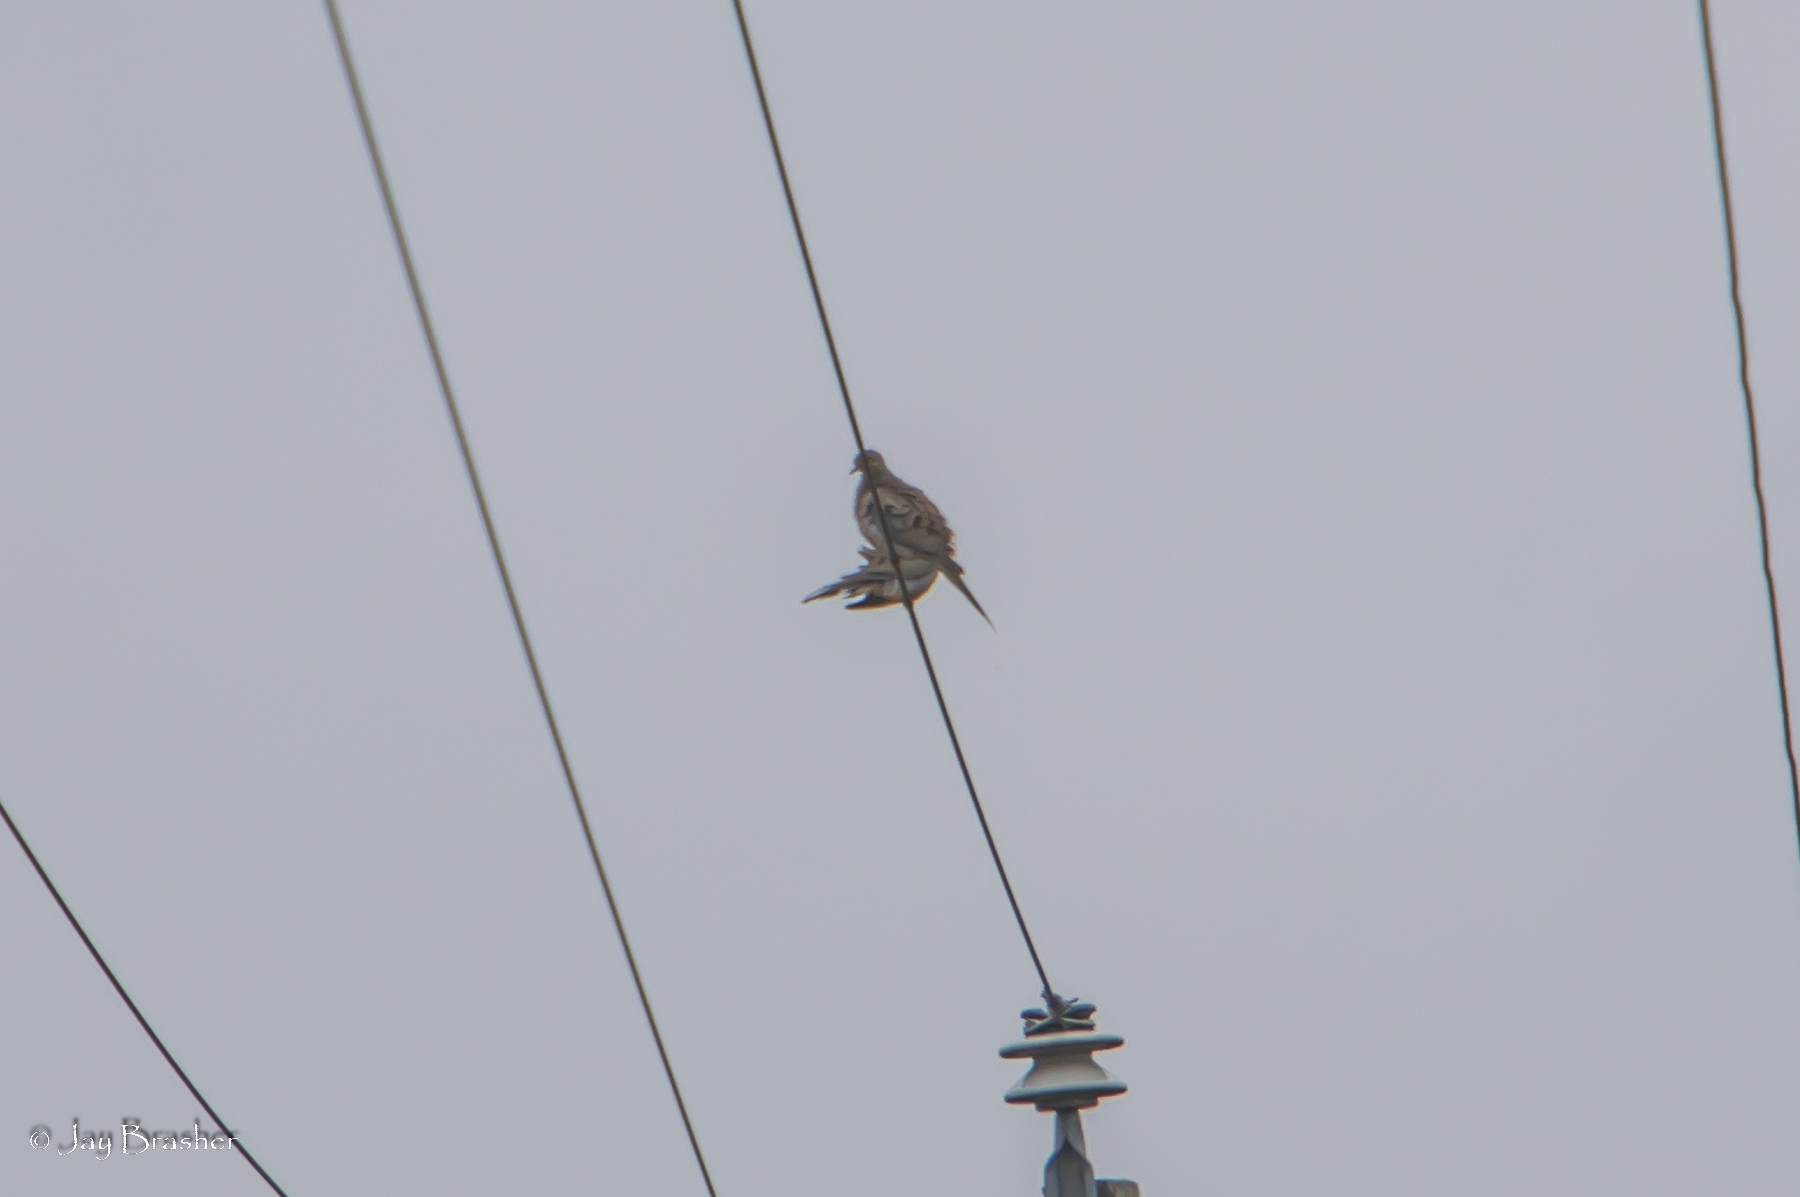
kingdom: Animalia
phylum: Chordata
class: Aves
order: Columbiformes
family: Columbidae
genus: Zenaida
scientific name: Zenaida macroura
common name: Mourning dove
